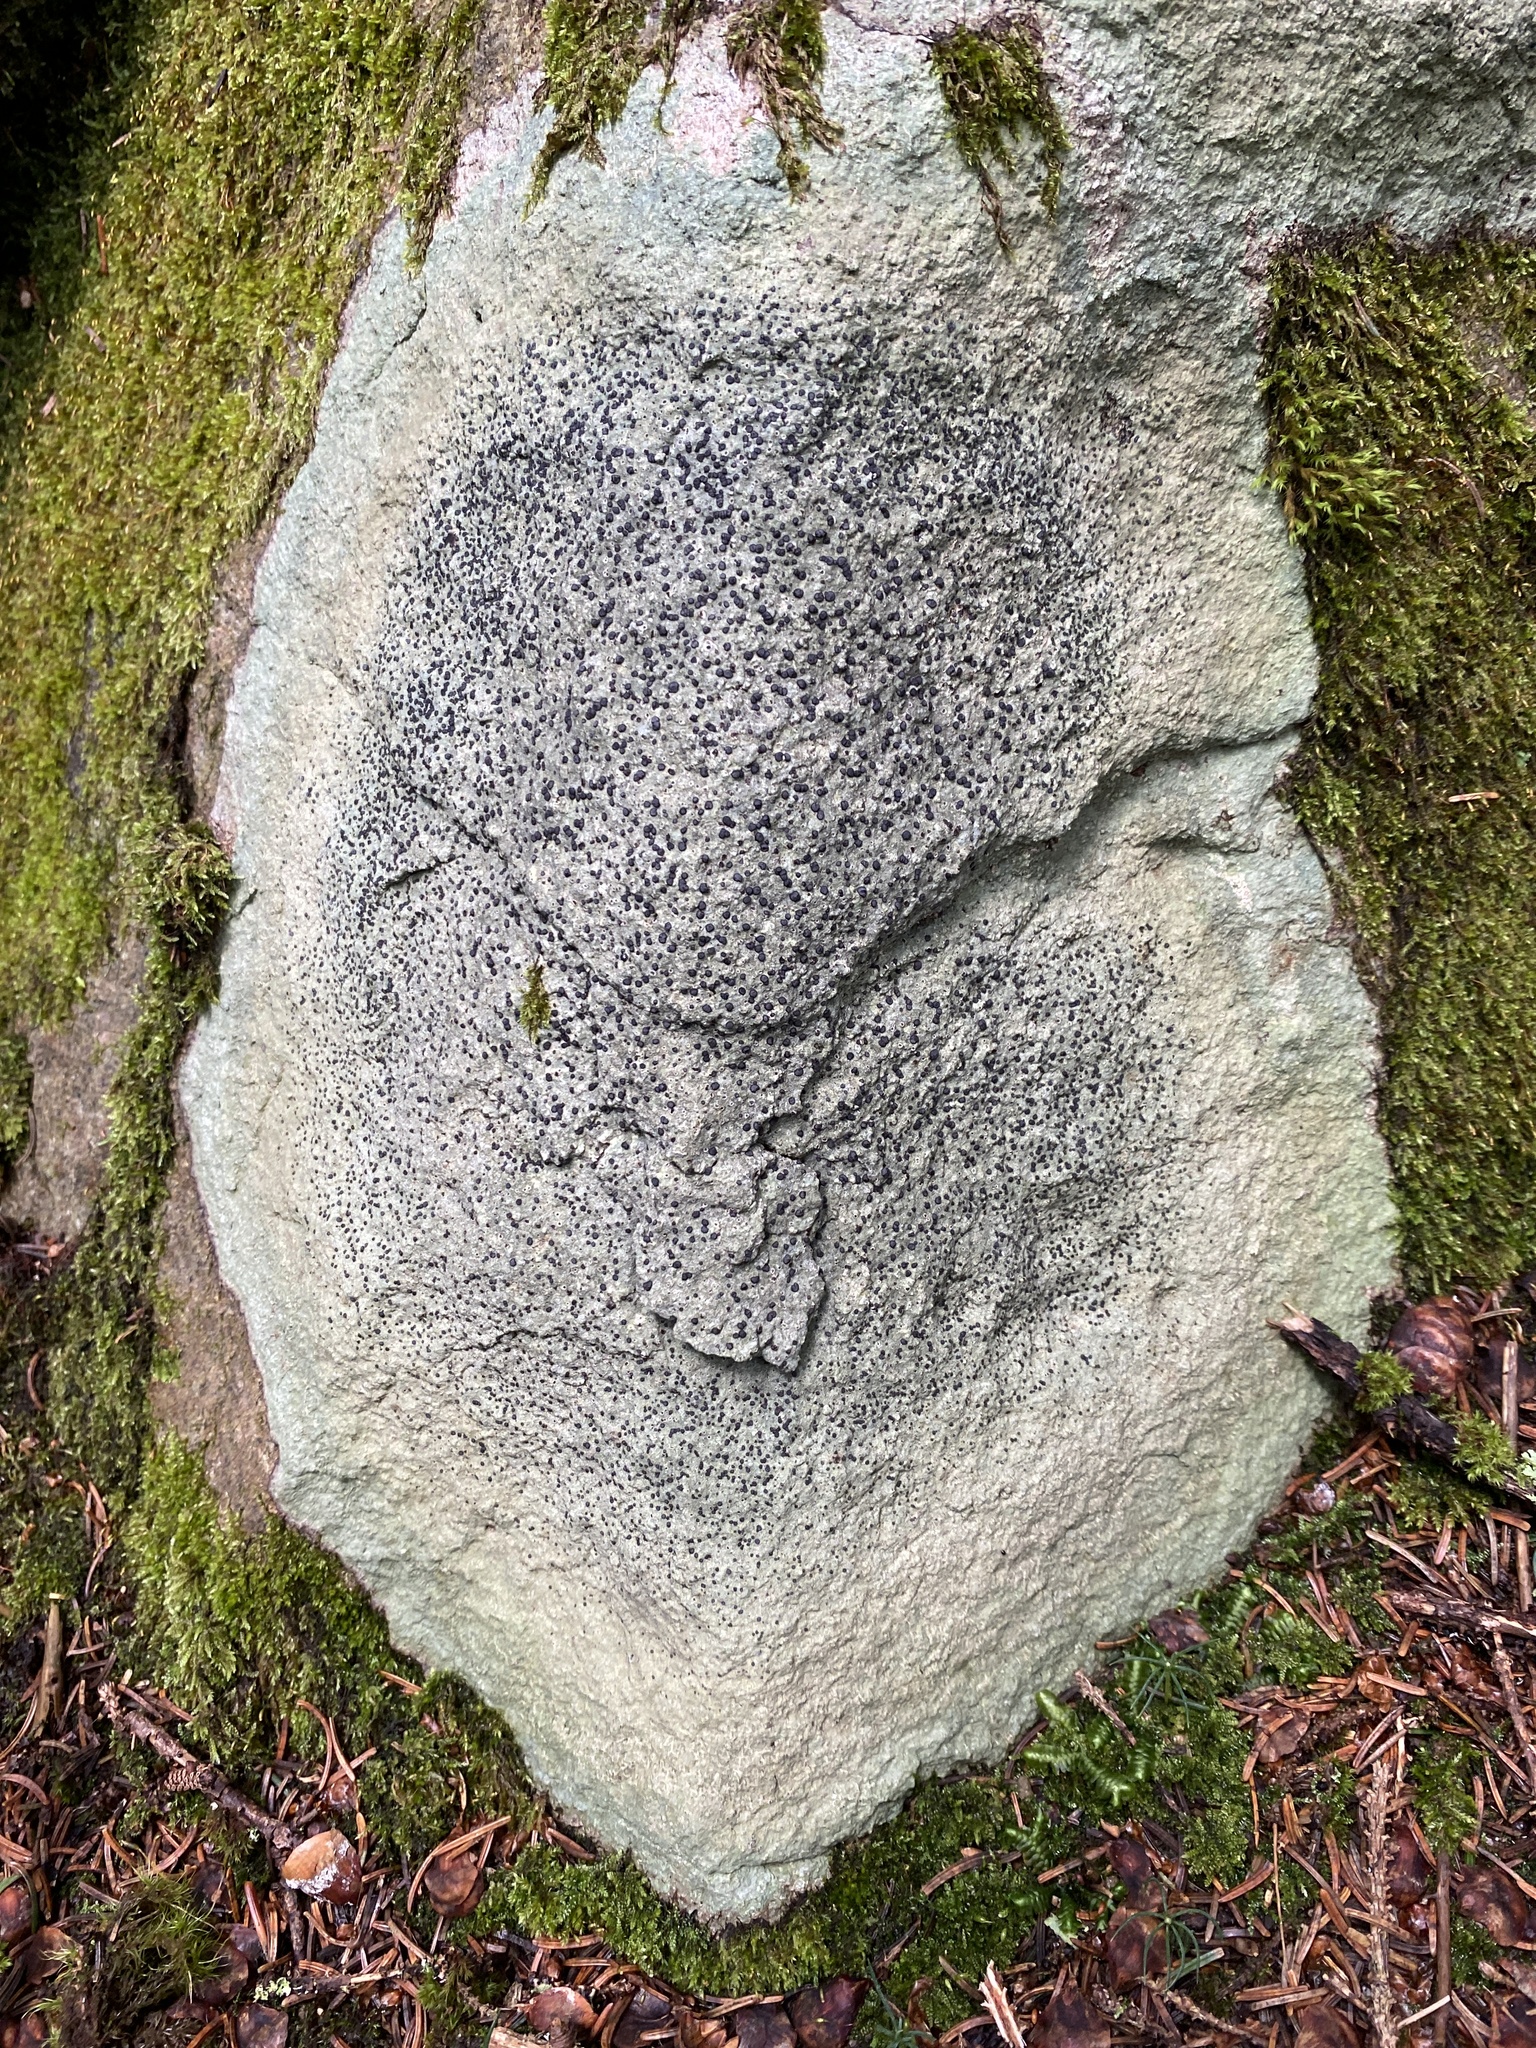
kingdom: Fungi
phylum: Ascomycota
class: Lecanoromycetes
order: Lecideales
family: Lecideaceae
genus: Porpidia
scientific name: Porpidia albocaerulescens
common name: Smokey-eyed boulder lichen
